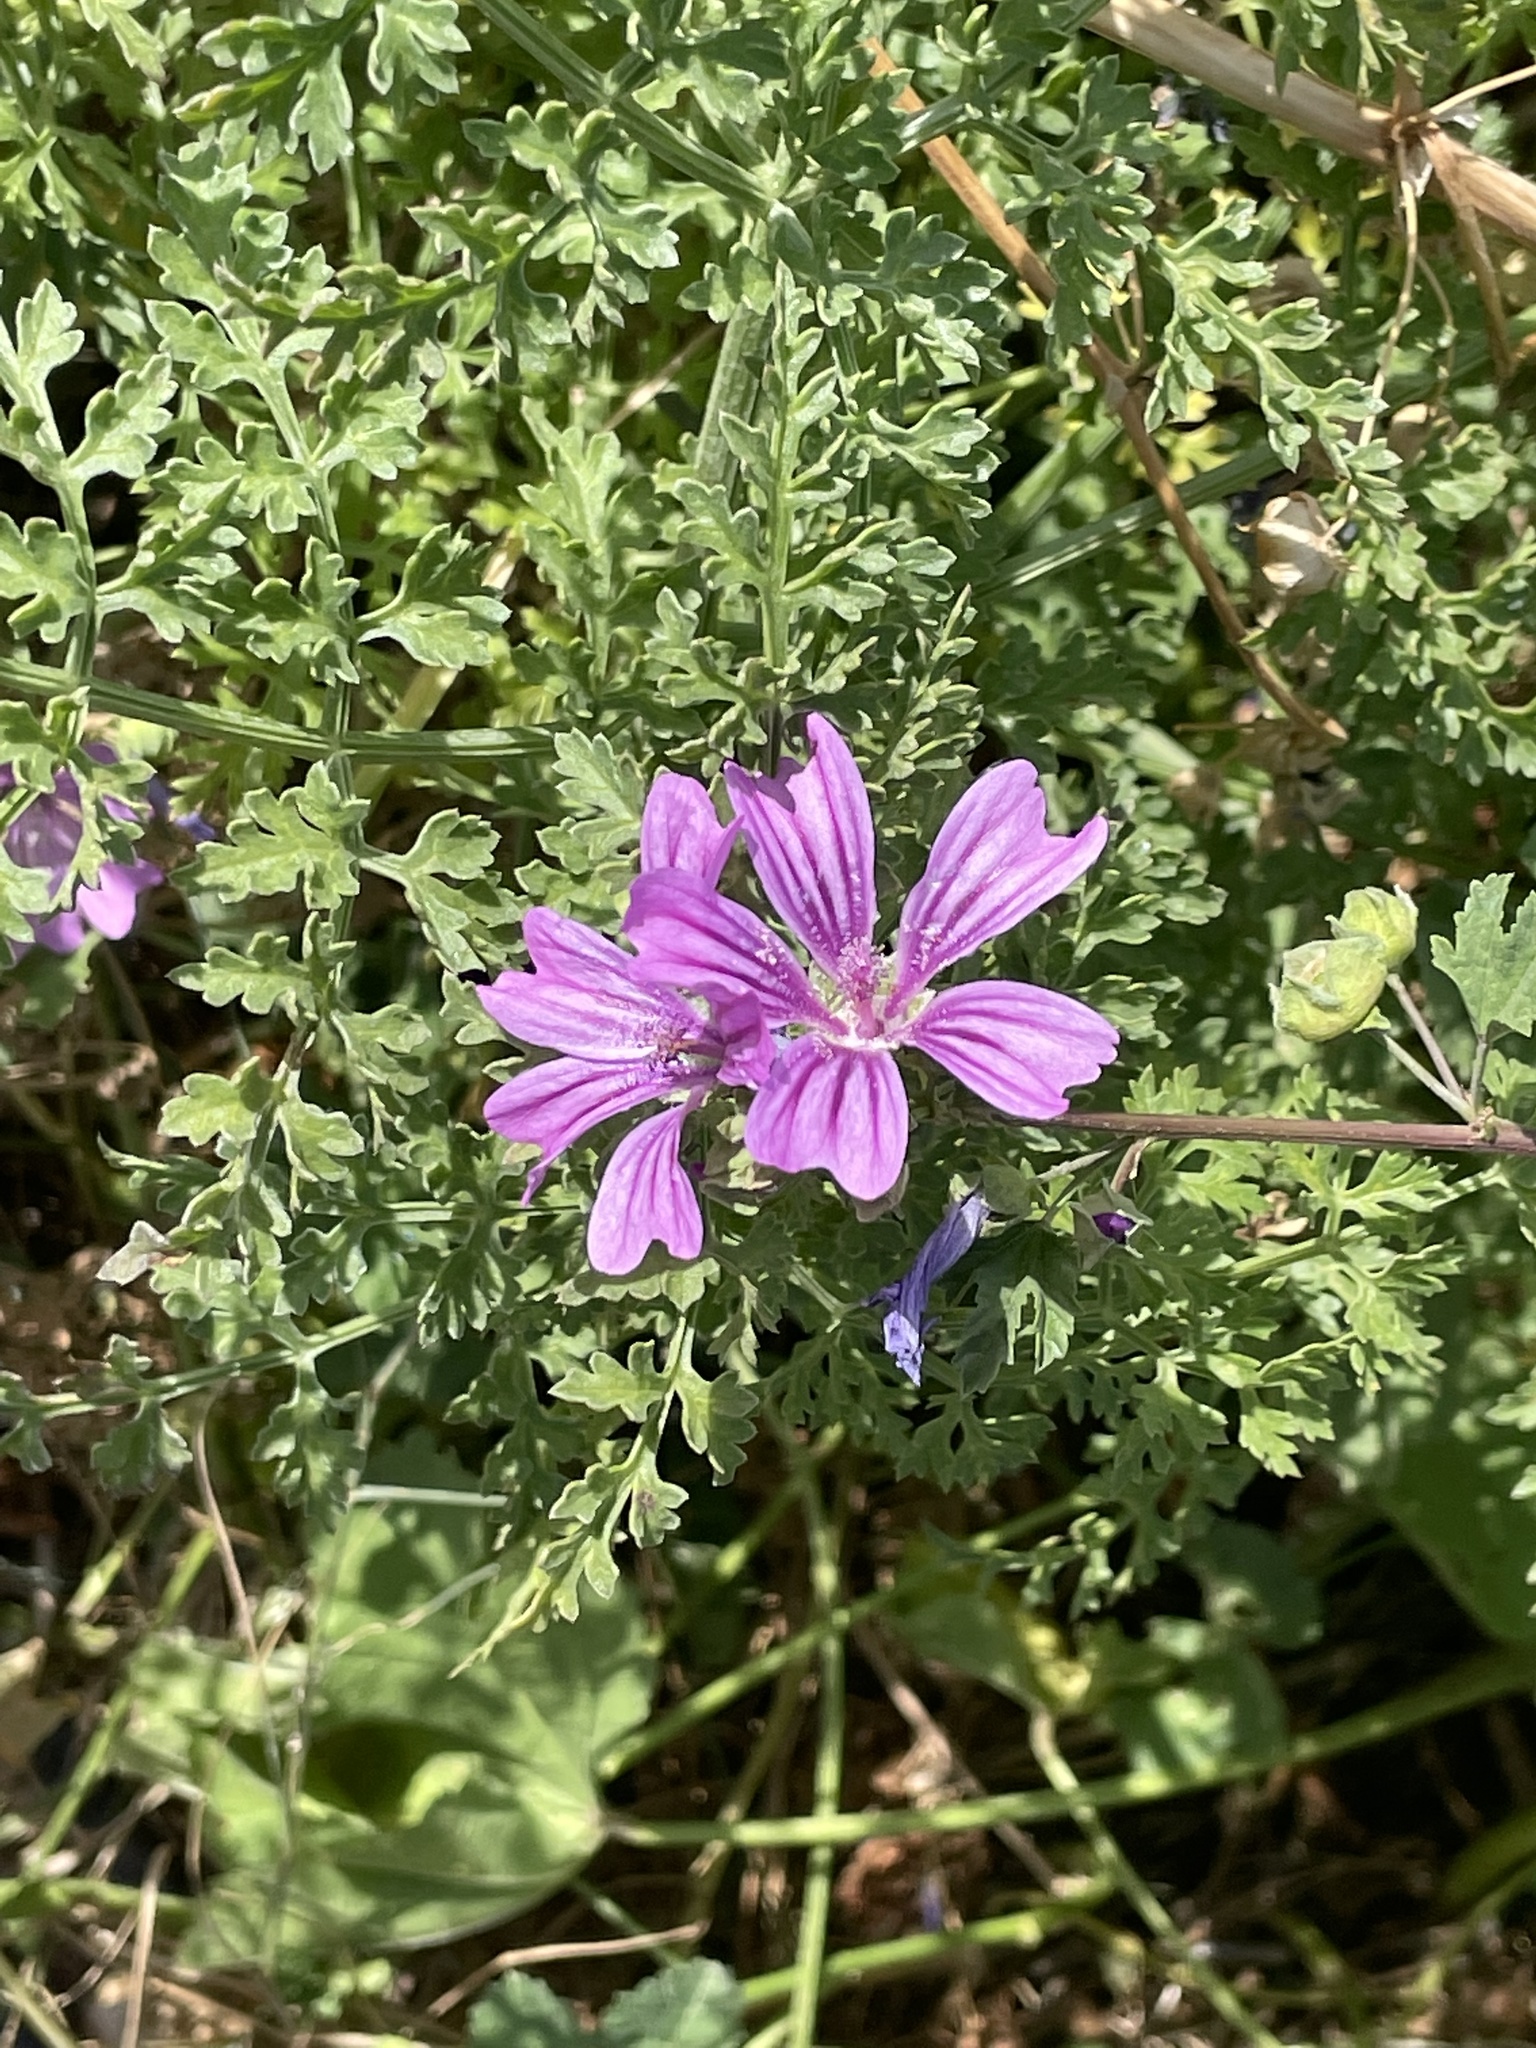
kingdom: Plantae
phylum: Tracheophyta
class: Magnoliopsida
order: Malvales
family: Malvaceae
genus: Malva
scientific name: Malva sylvestris
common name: Common mallow
